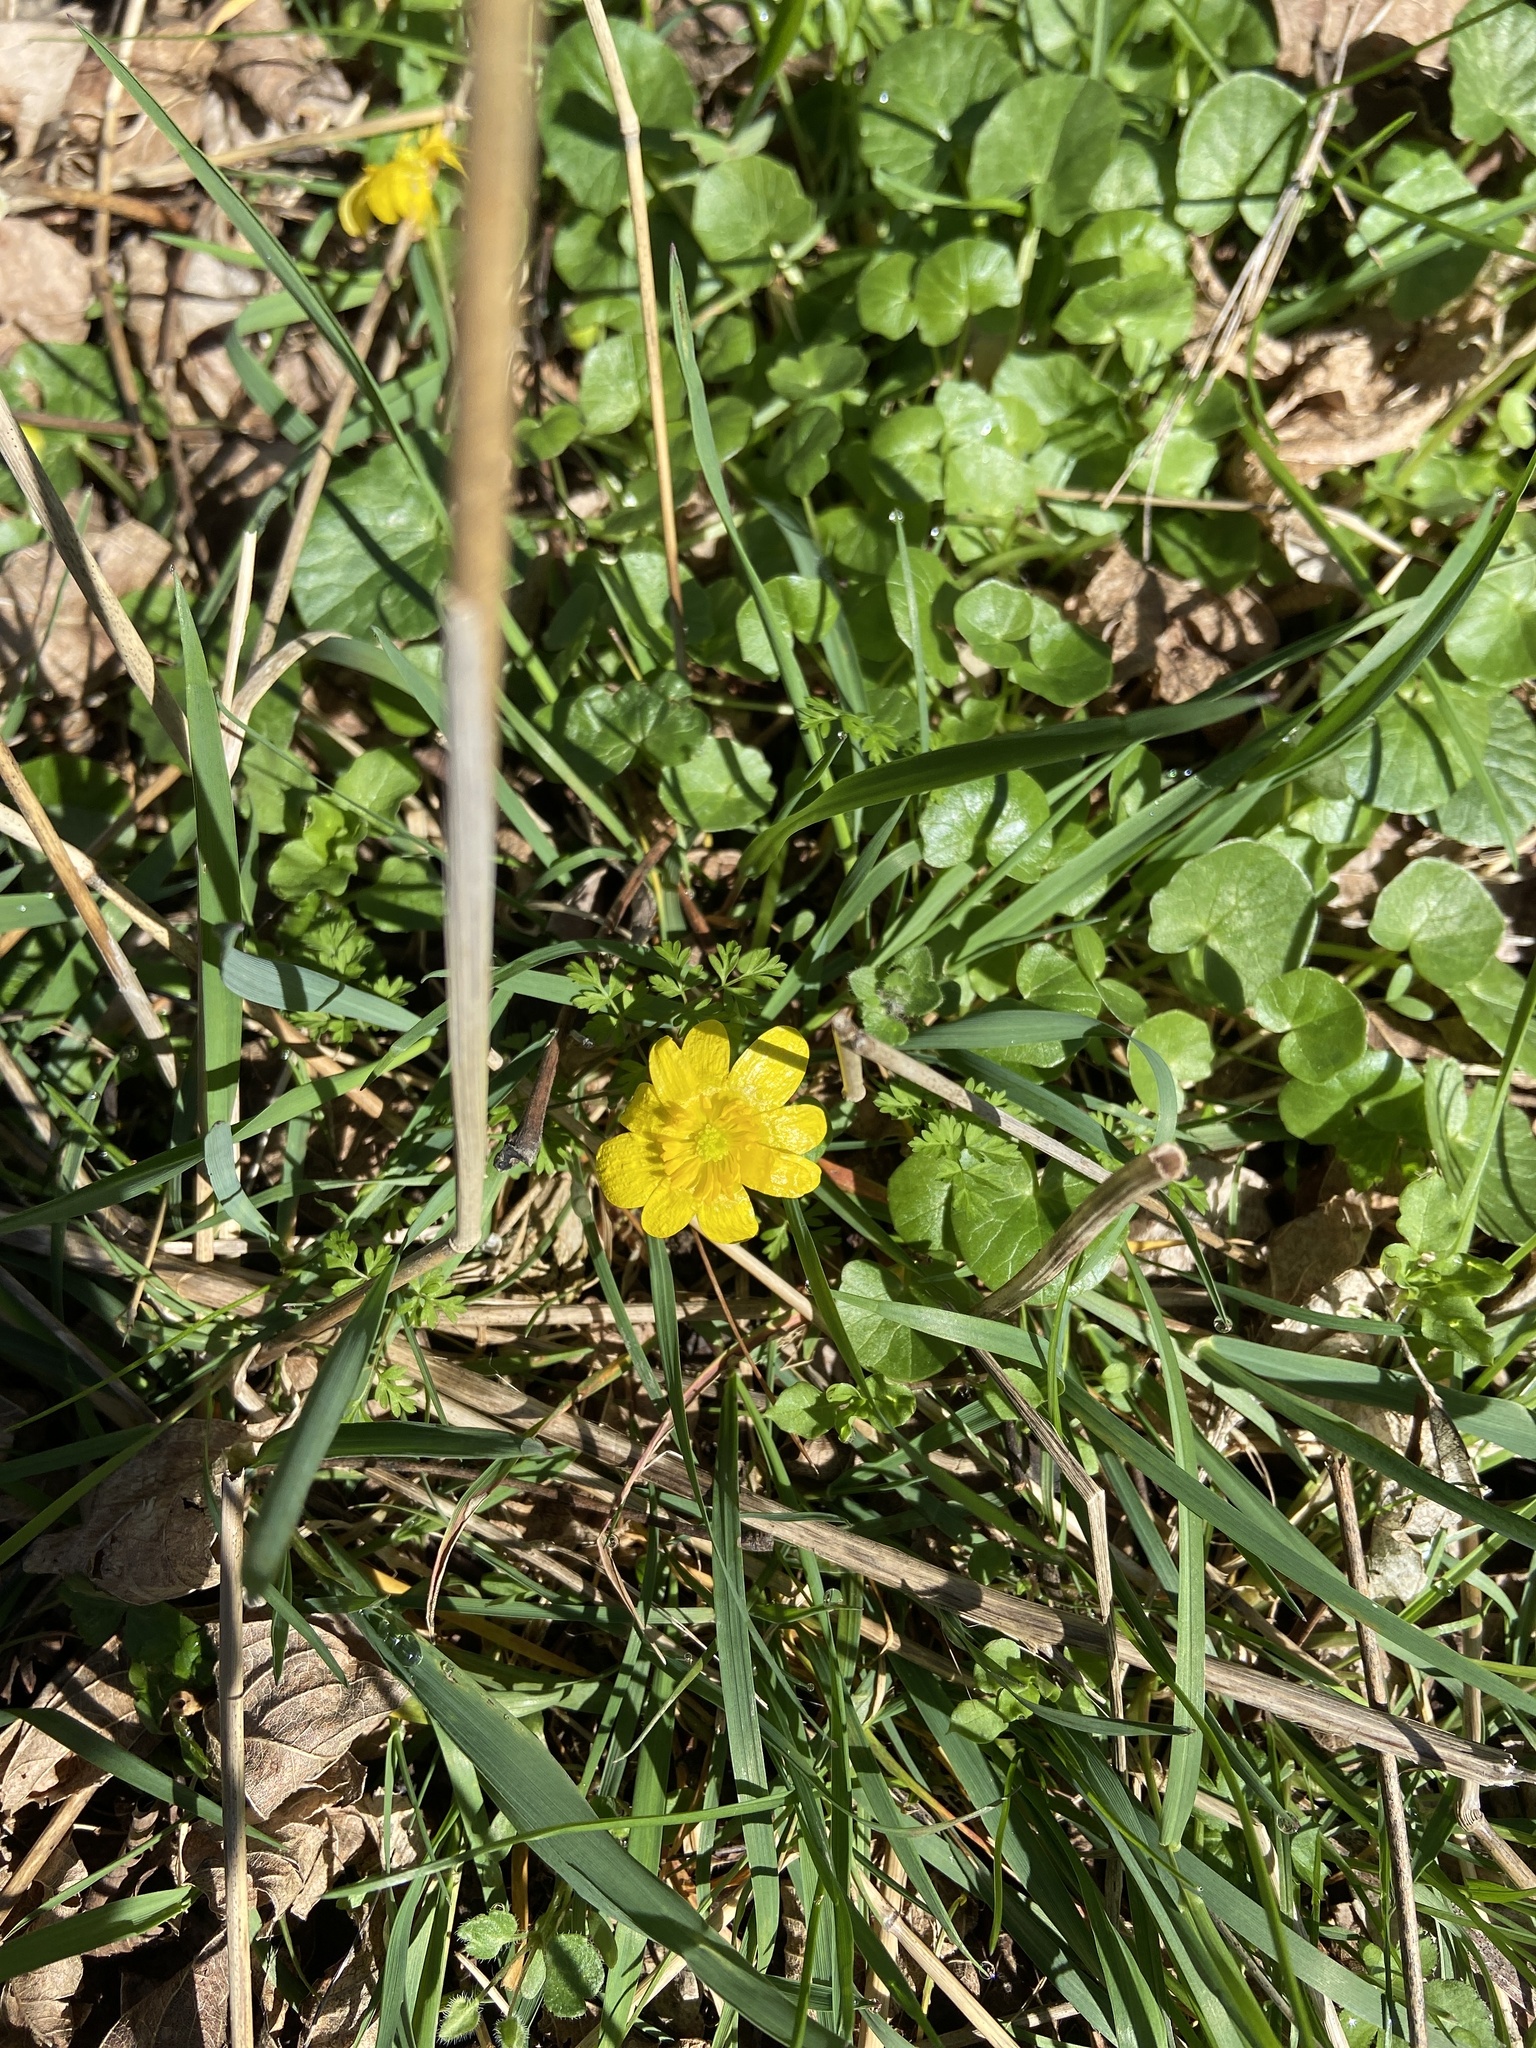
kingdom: Plantae
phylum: Tracheophyta
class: Magnoliopsida
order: Ranunculales
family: Ranunculaceae
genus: Ficaria
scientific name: Ficaria verna
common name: Lesser celandine
